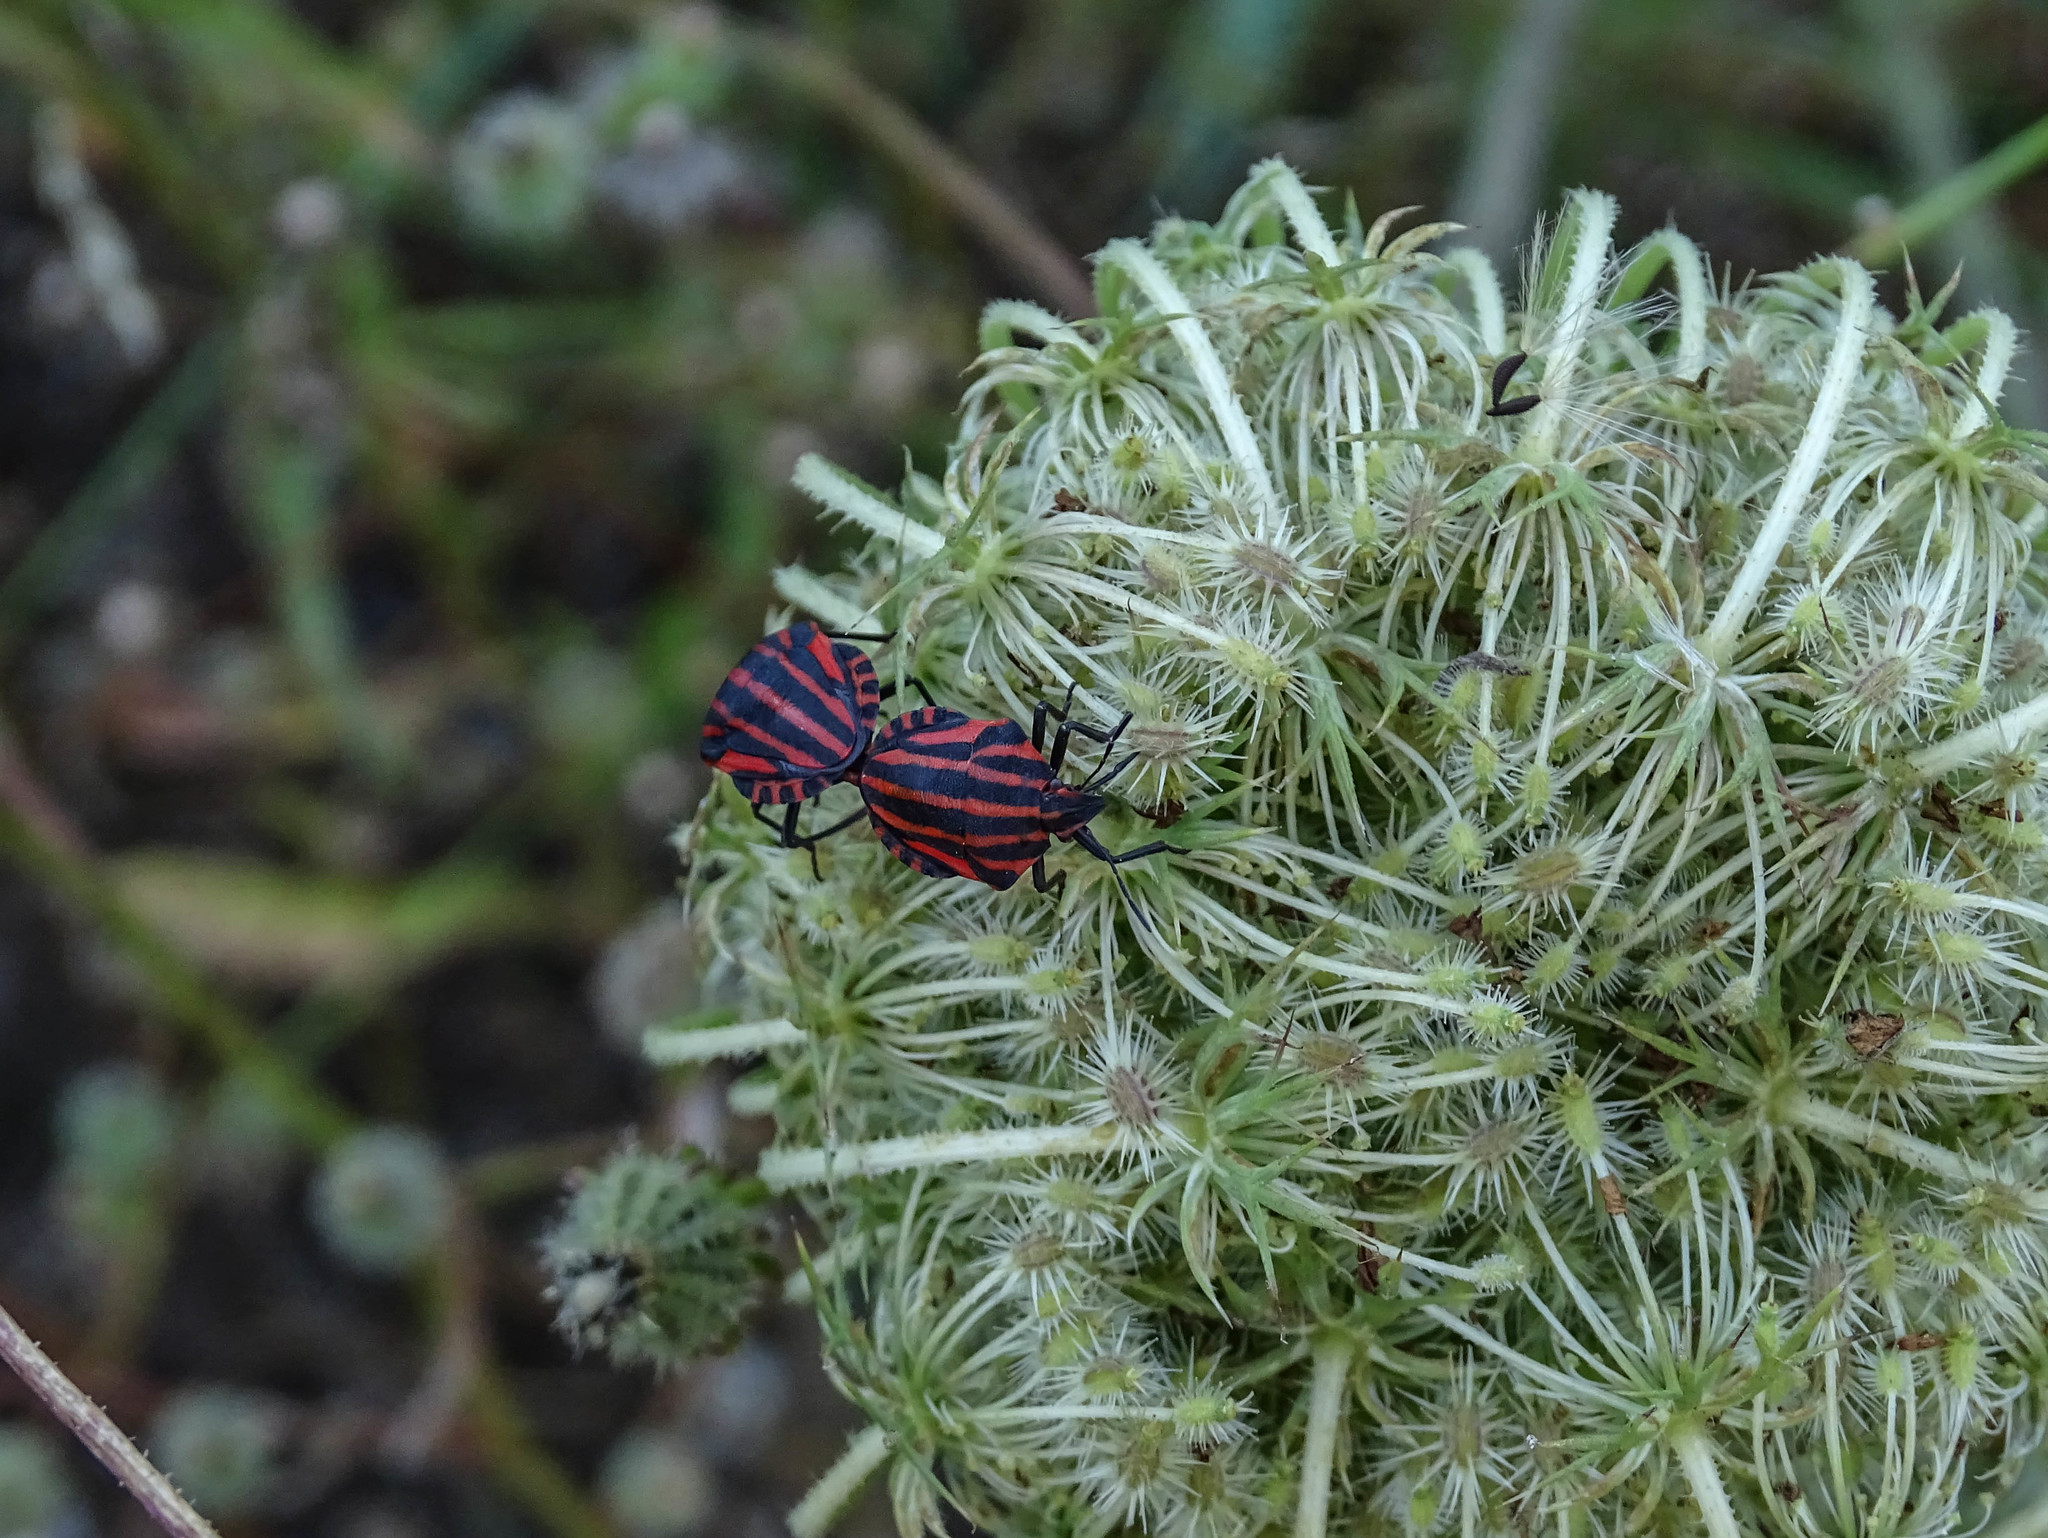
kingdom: Animalia
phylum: Arthropoda
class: Insecta
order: Hemiptera
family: Pentatomidae
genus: Graphosoma
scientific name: Graphosoma italicum
